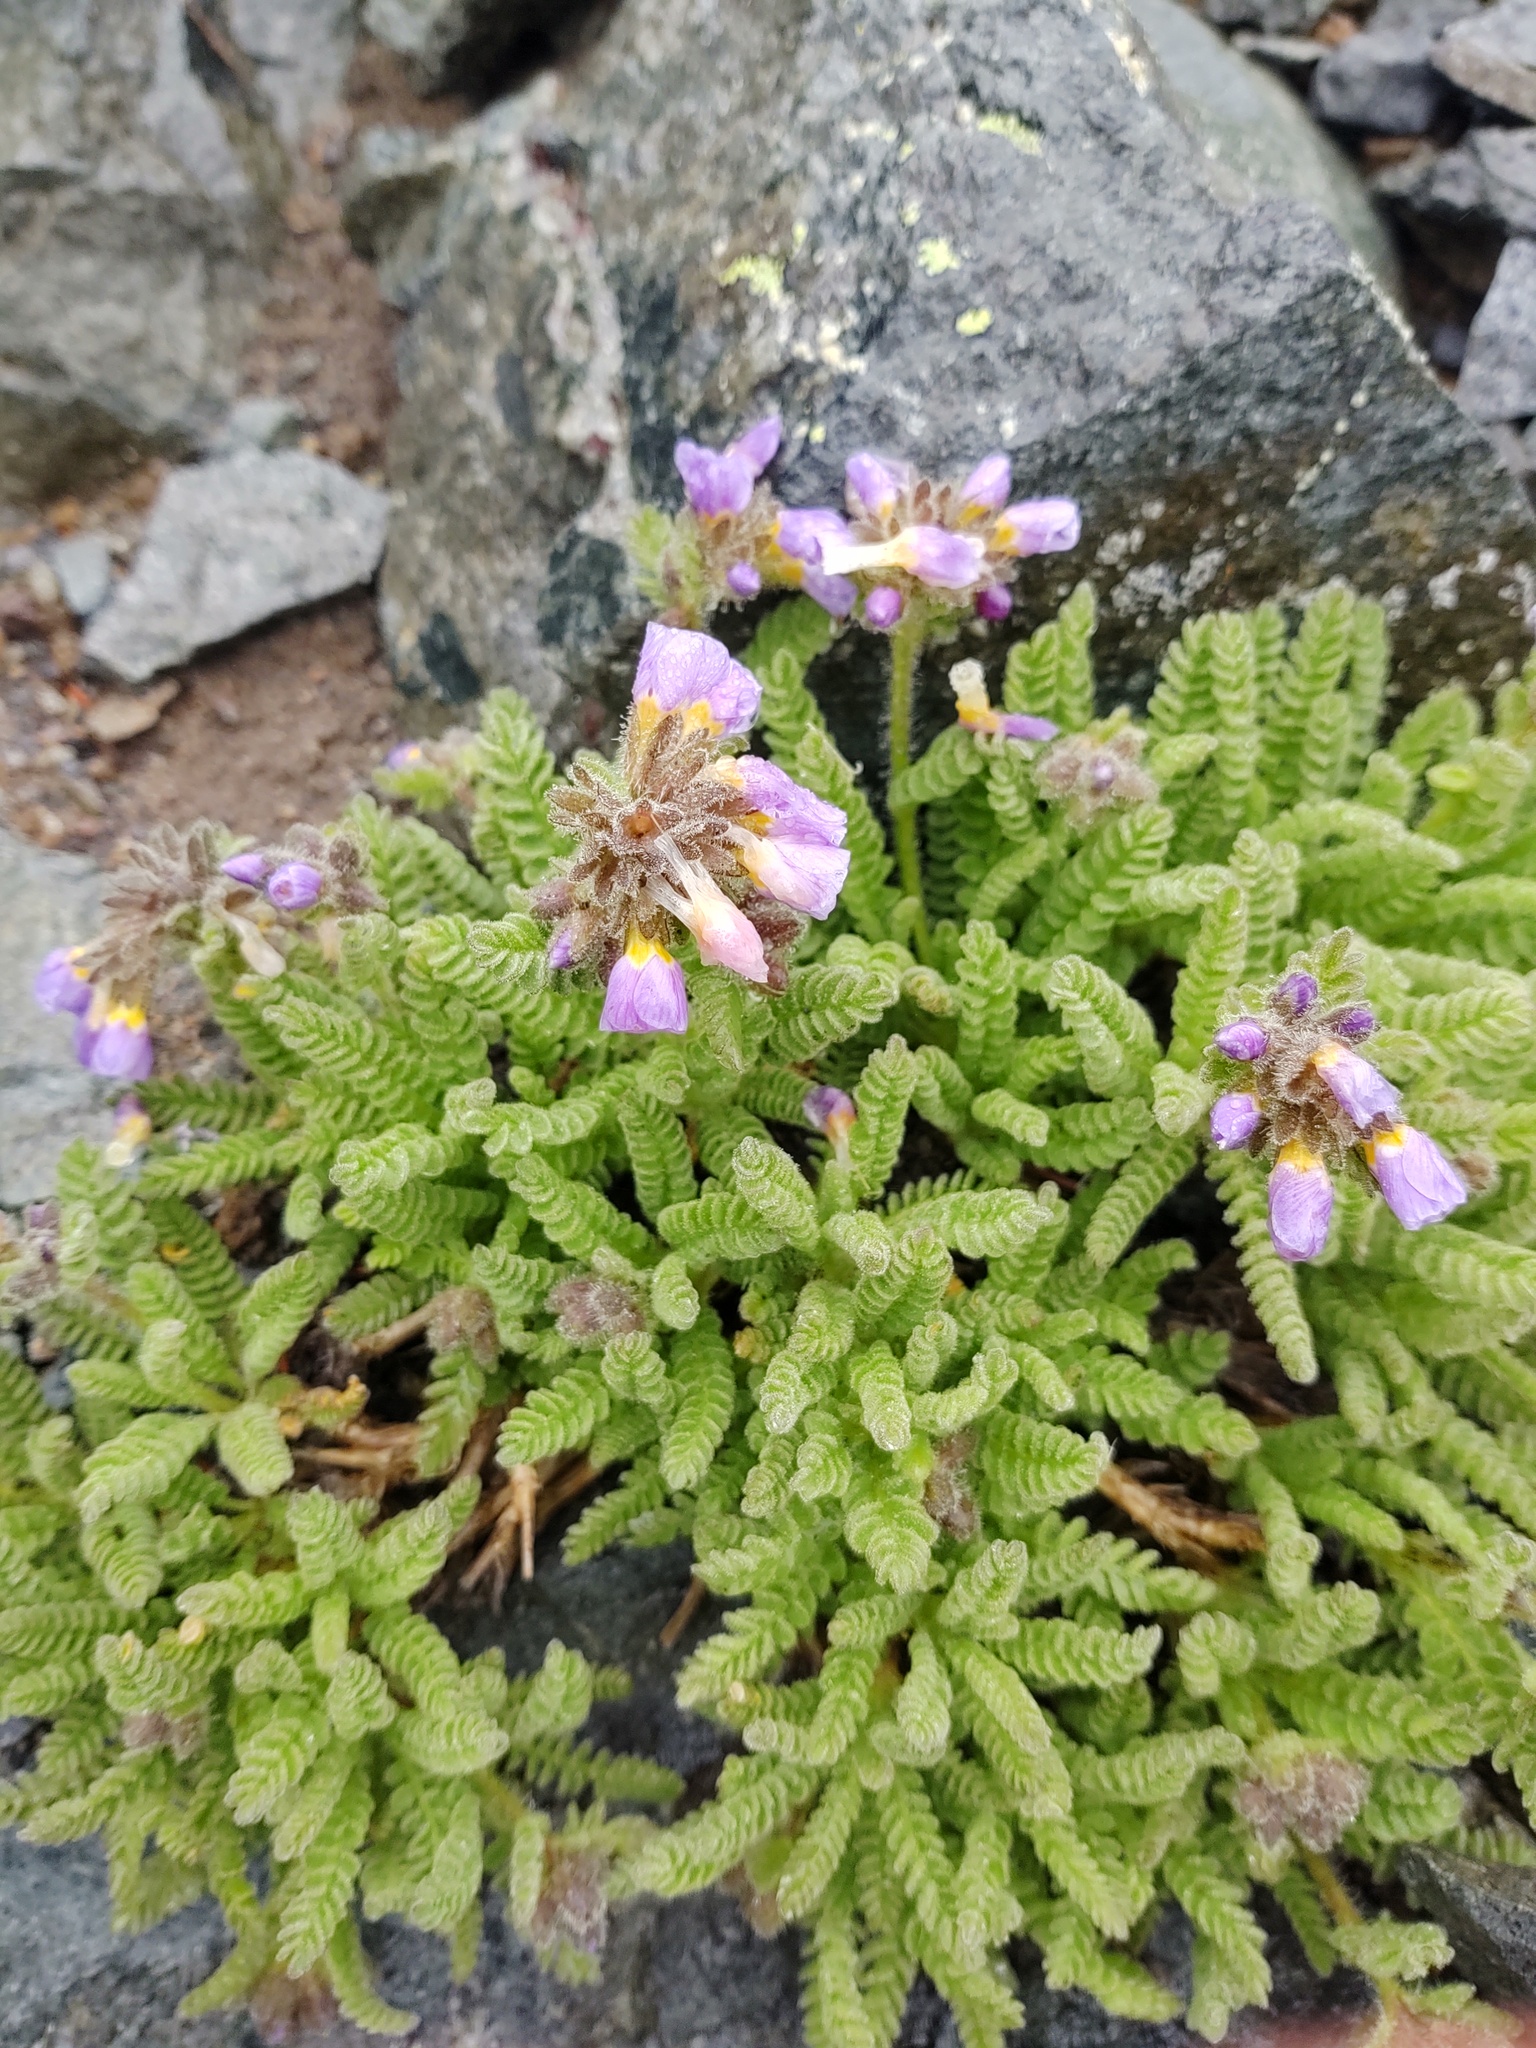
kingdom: Plantae
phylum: Tracheophyta
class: Magnoliopsida
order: Ericales
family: Polemoniaceae
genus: Polemonium
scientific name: Polemonium elegans
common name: Elegant jacob's-ladder
